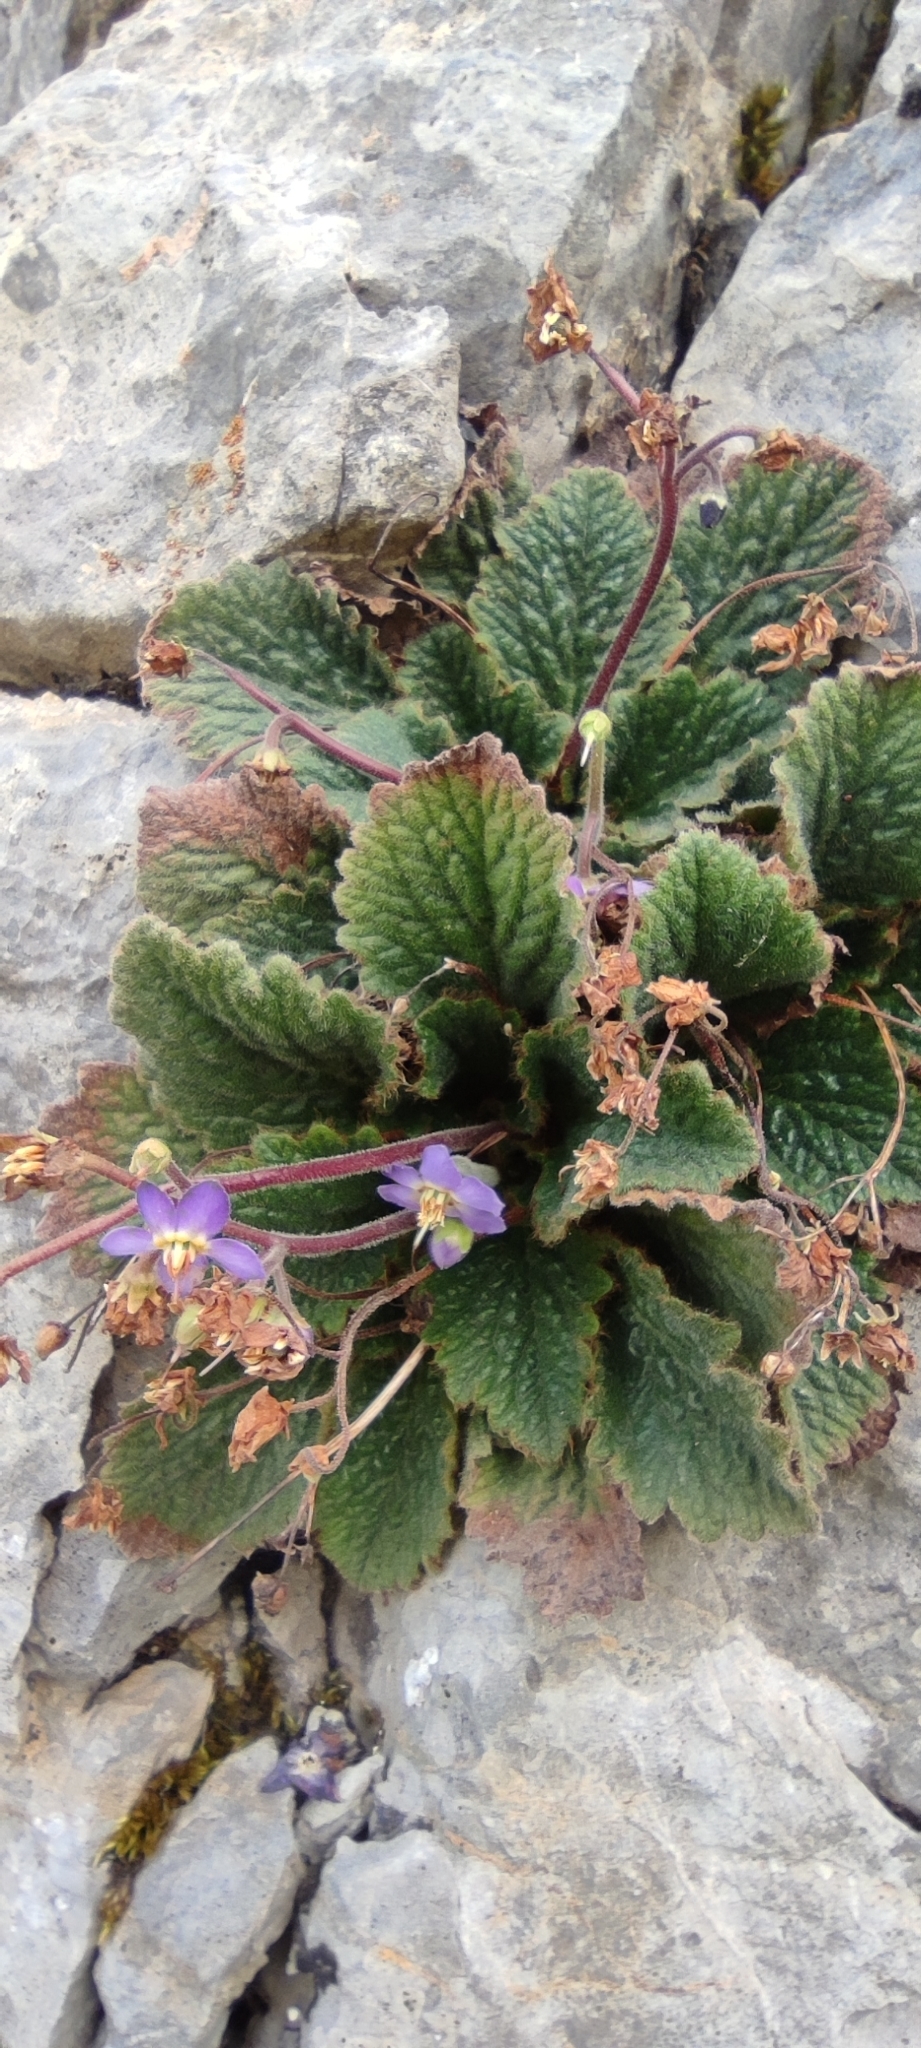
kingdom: Plantae
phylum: Tracheophyta
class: Magnoliopsida
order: Lamiales
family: Gesneriaceae
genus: Ramonda
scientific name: Ramonda myconi
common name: Pyrenean-violet
